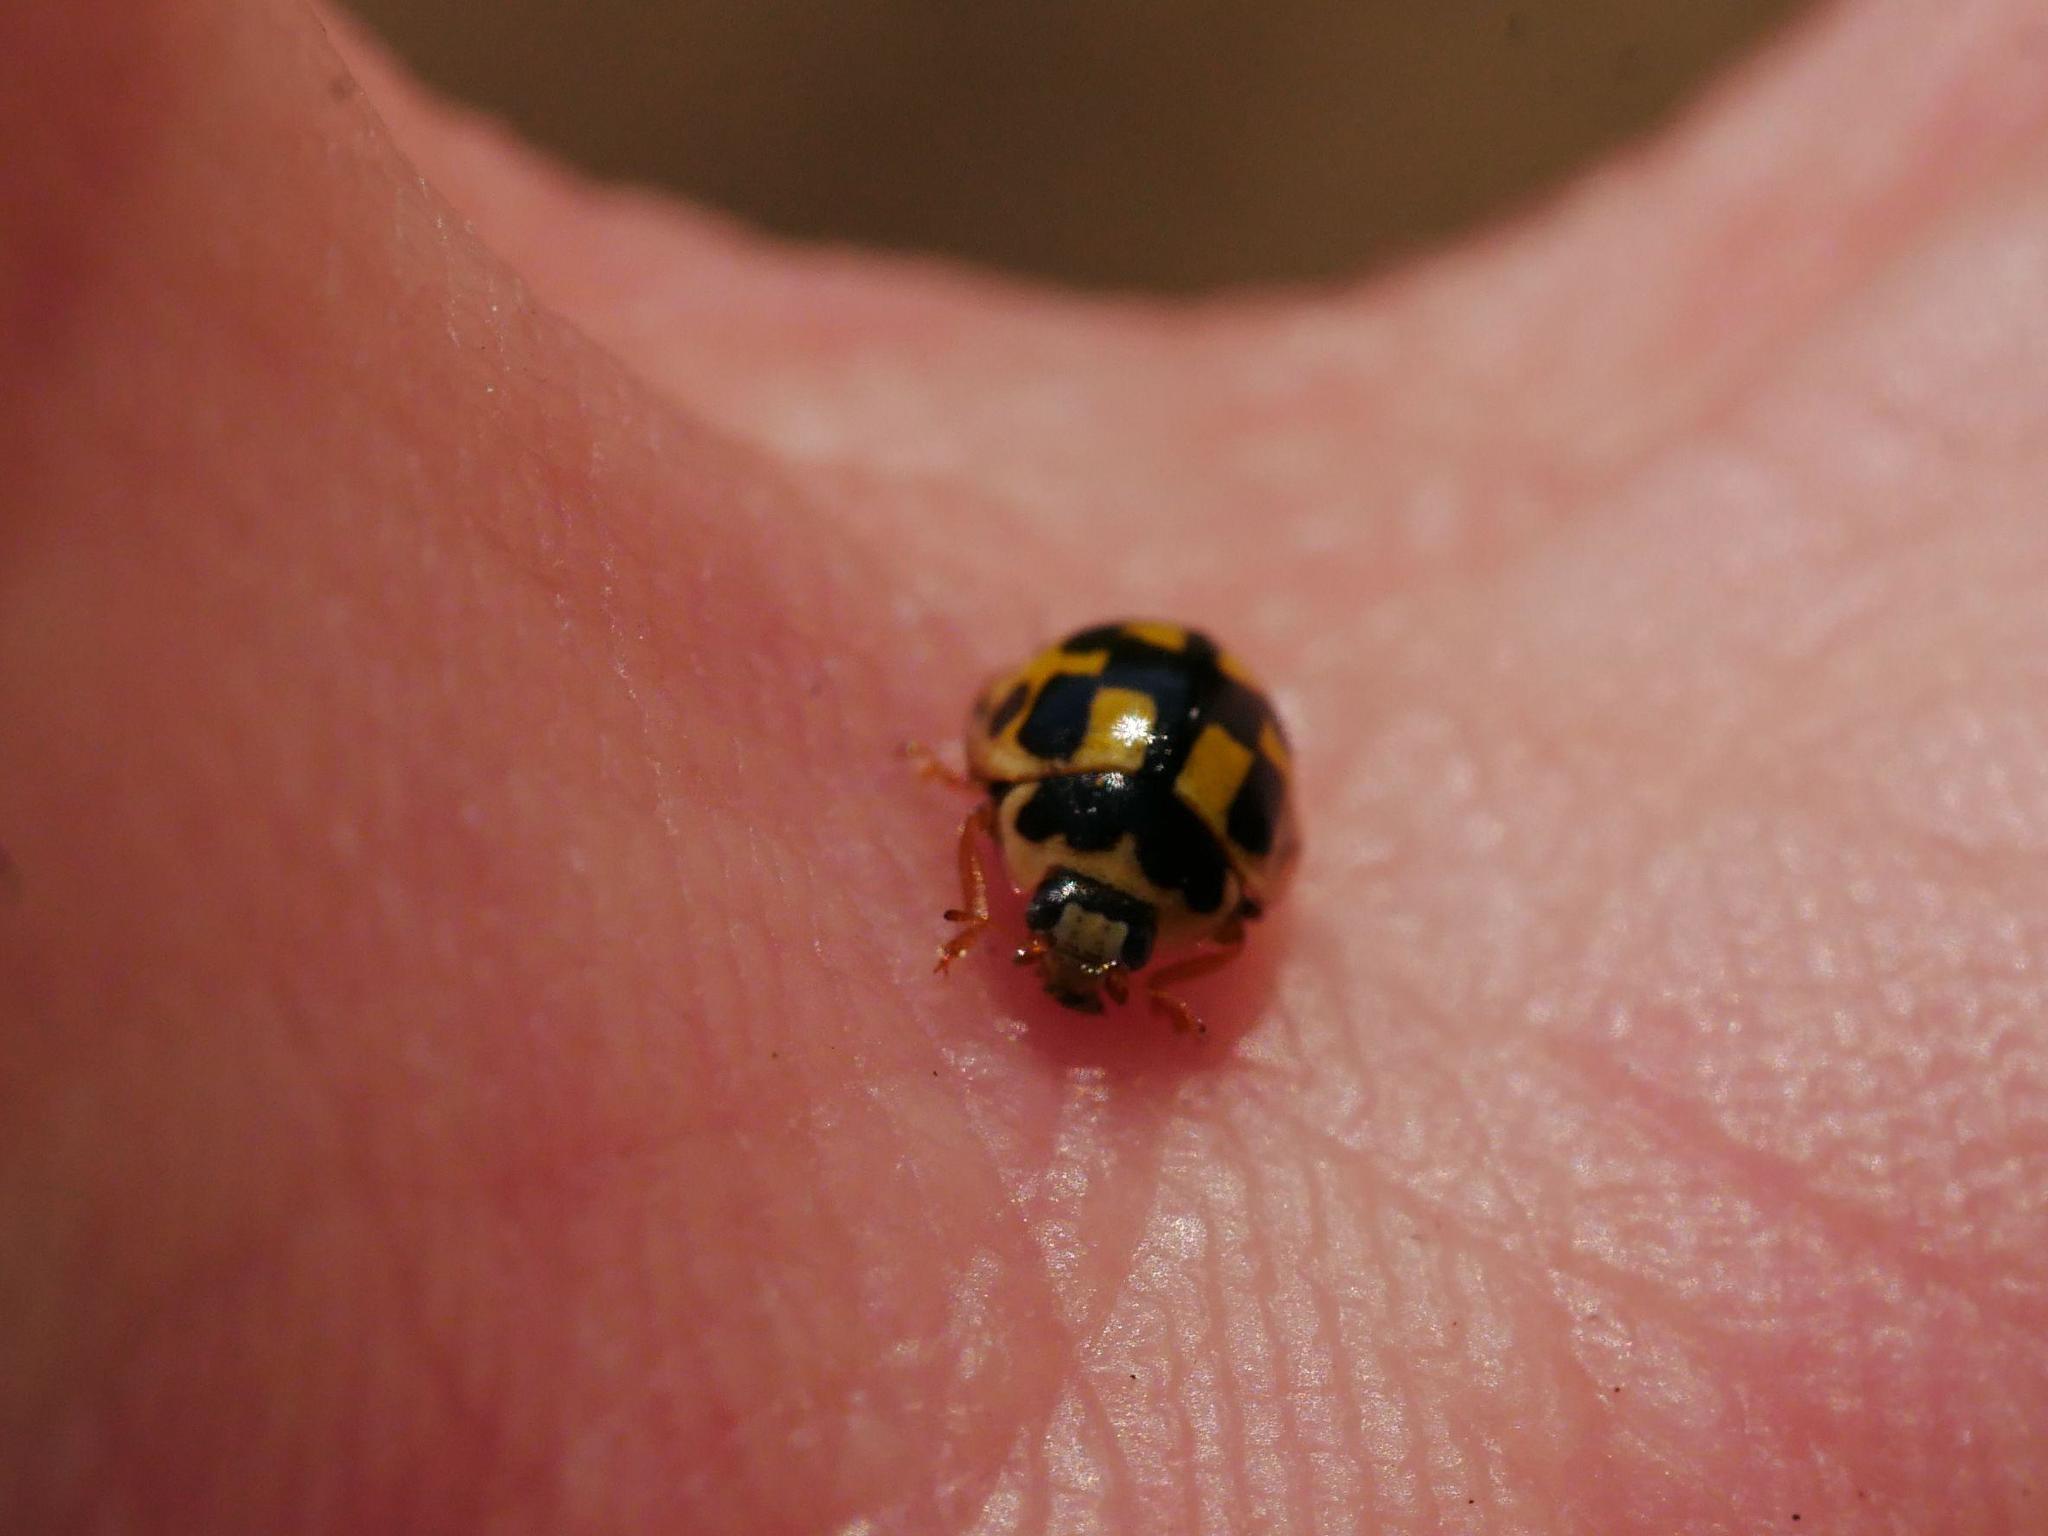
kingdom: Animalia
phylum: Arthropoda
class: Insecta
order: Coleoptera
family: Coccinellidae
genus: Propylaea
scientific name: Propylaea quatuordecimpunctata
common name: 14-spotted ladybird beetle
